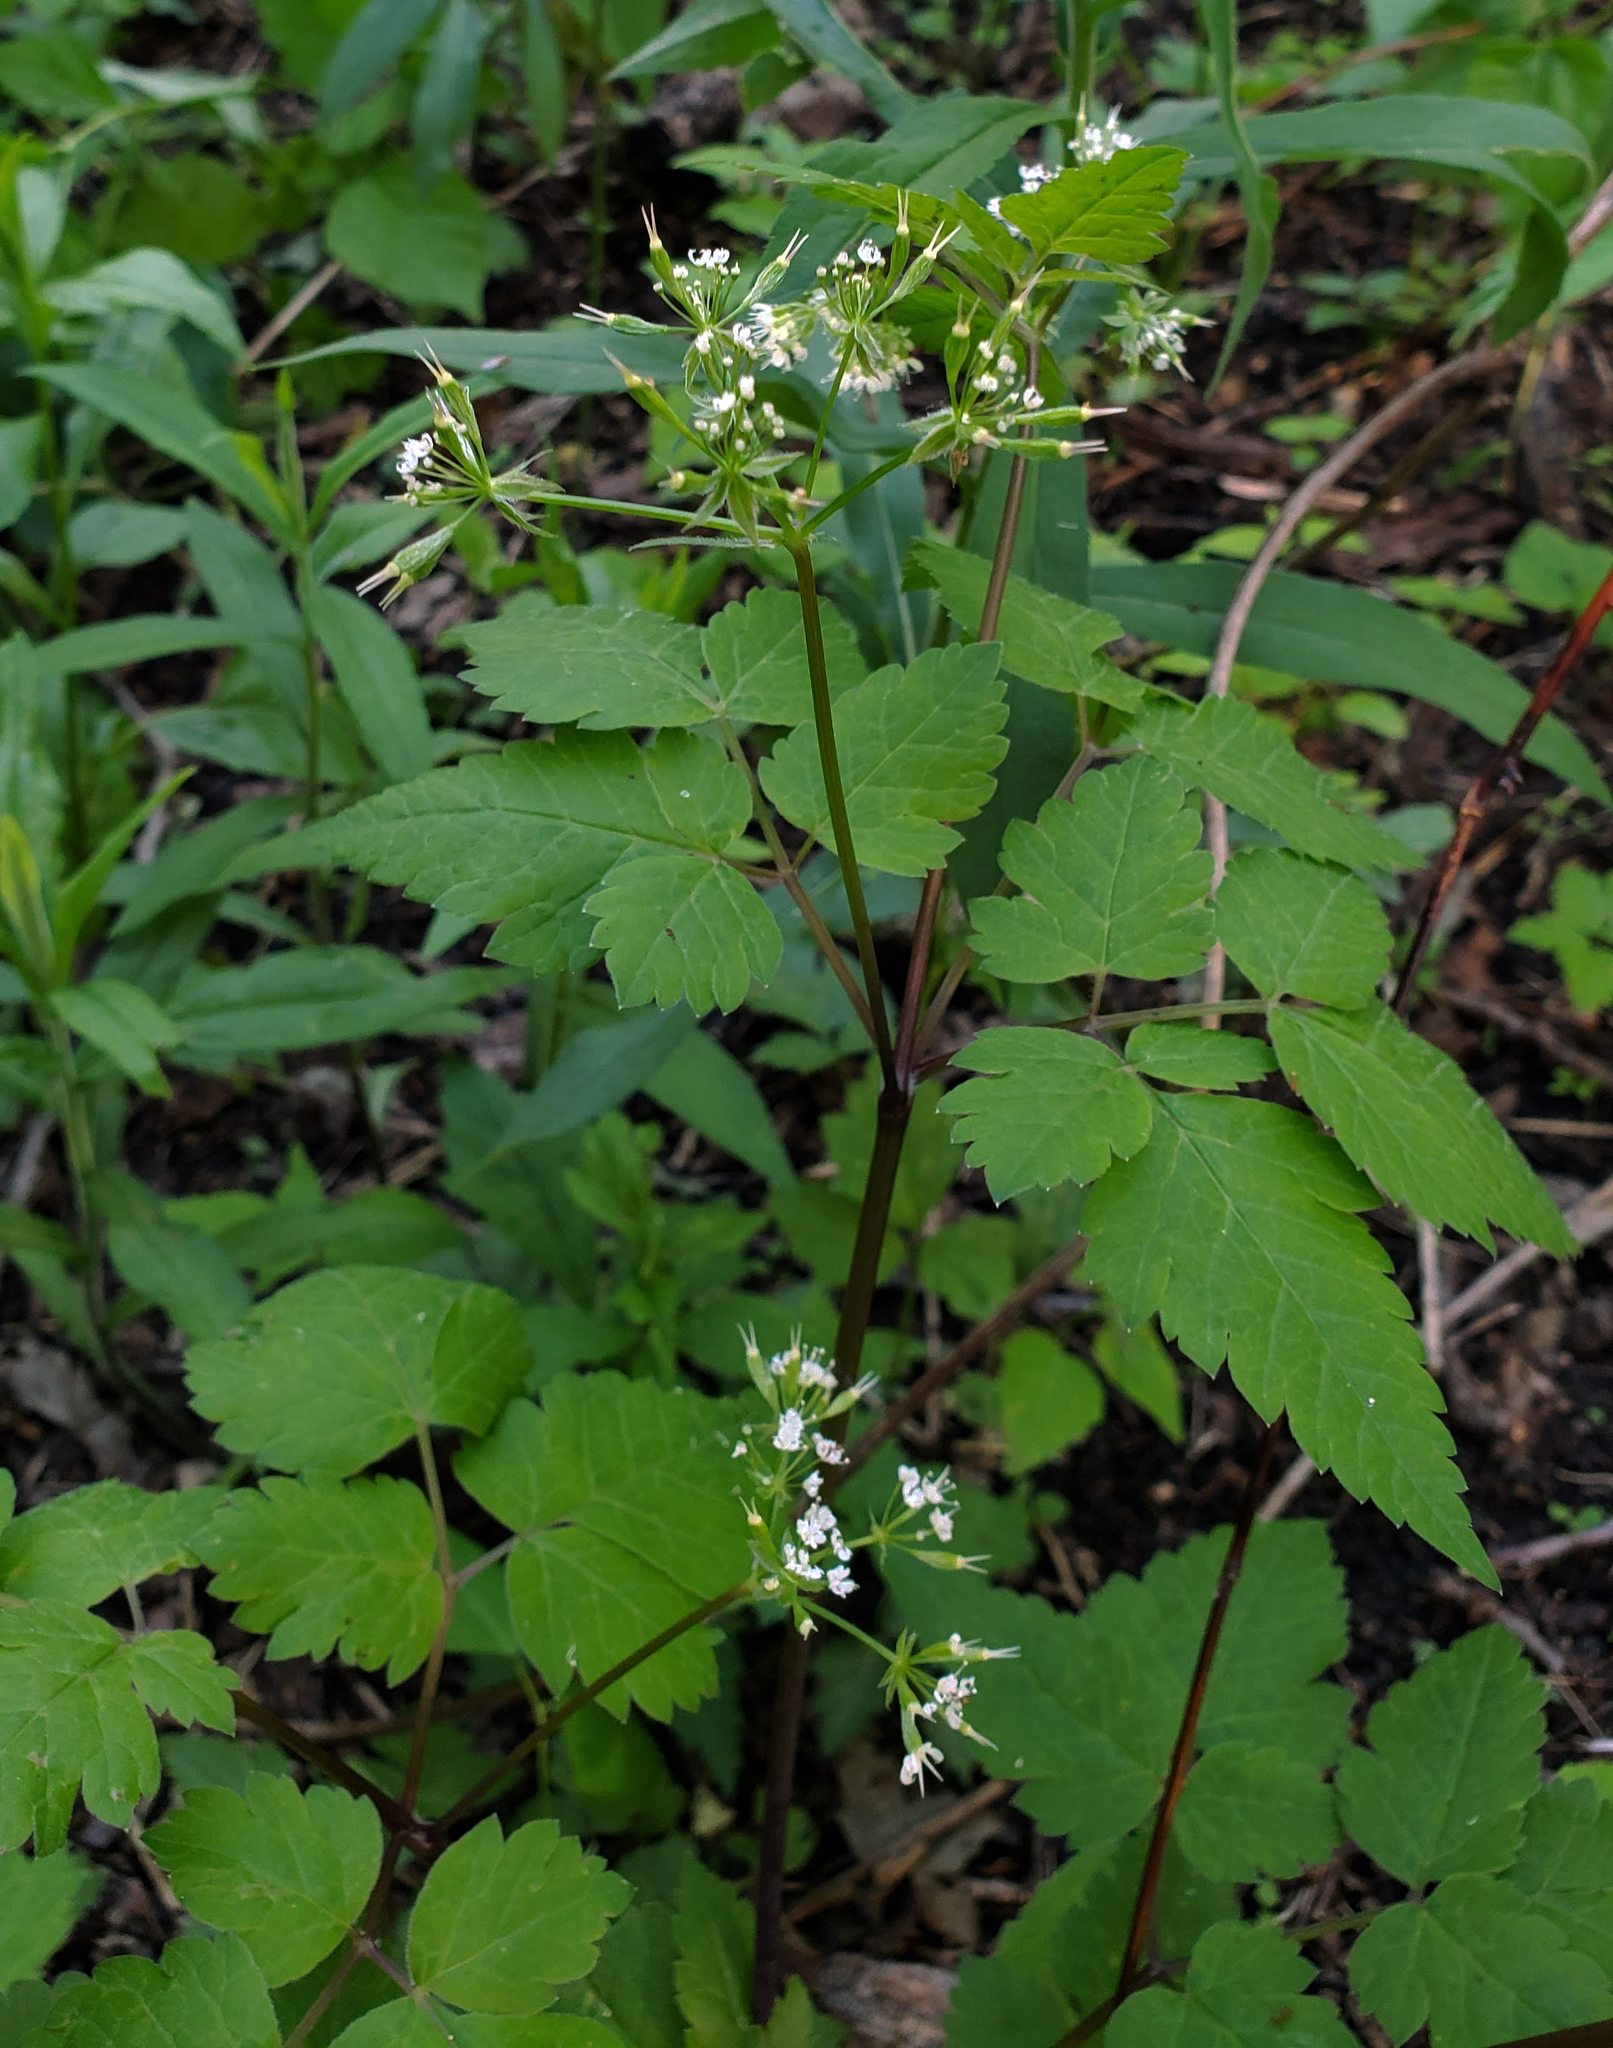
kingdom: Plantae
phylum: Tracheophyta
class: Magnoliopsida
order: Apiales
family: Apiaceae
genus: Osmorhiza
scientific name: Osmorhiza longistylis
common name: Smooth sweet cicely
